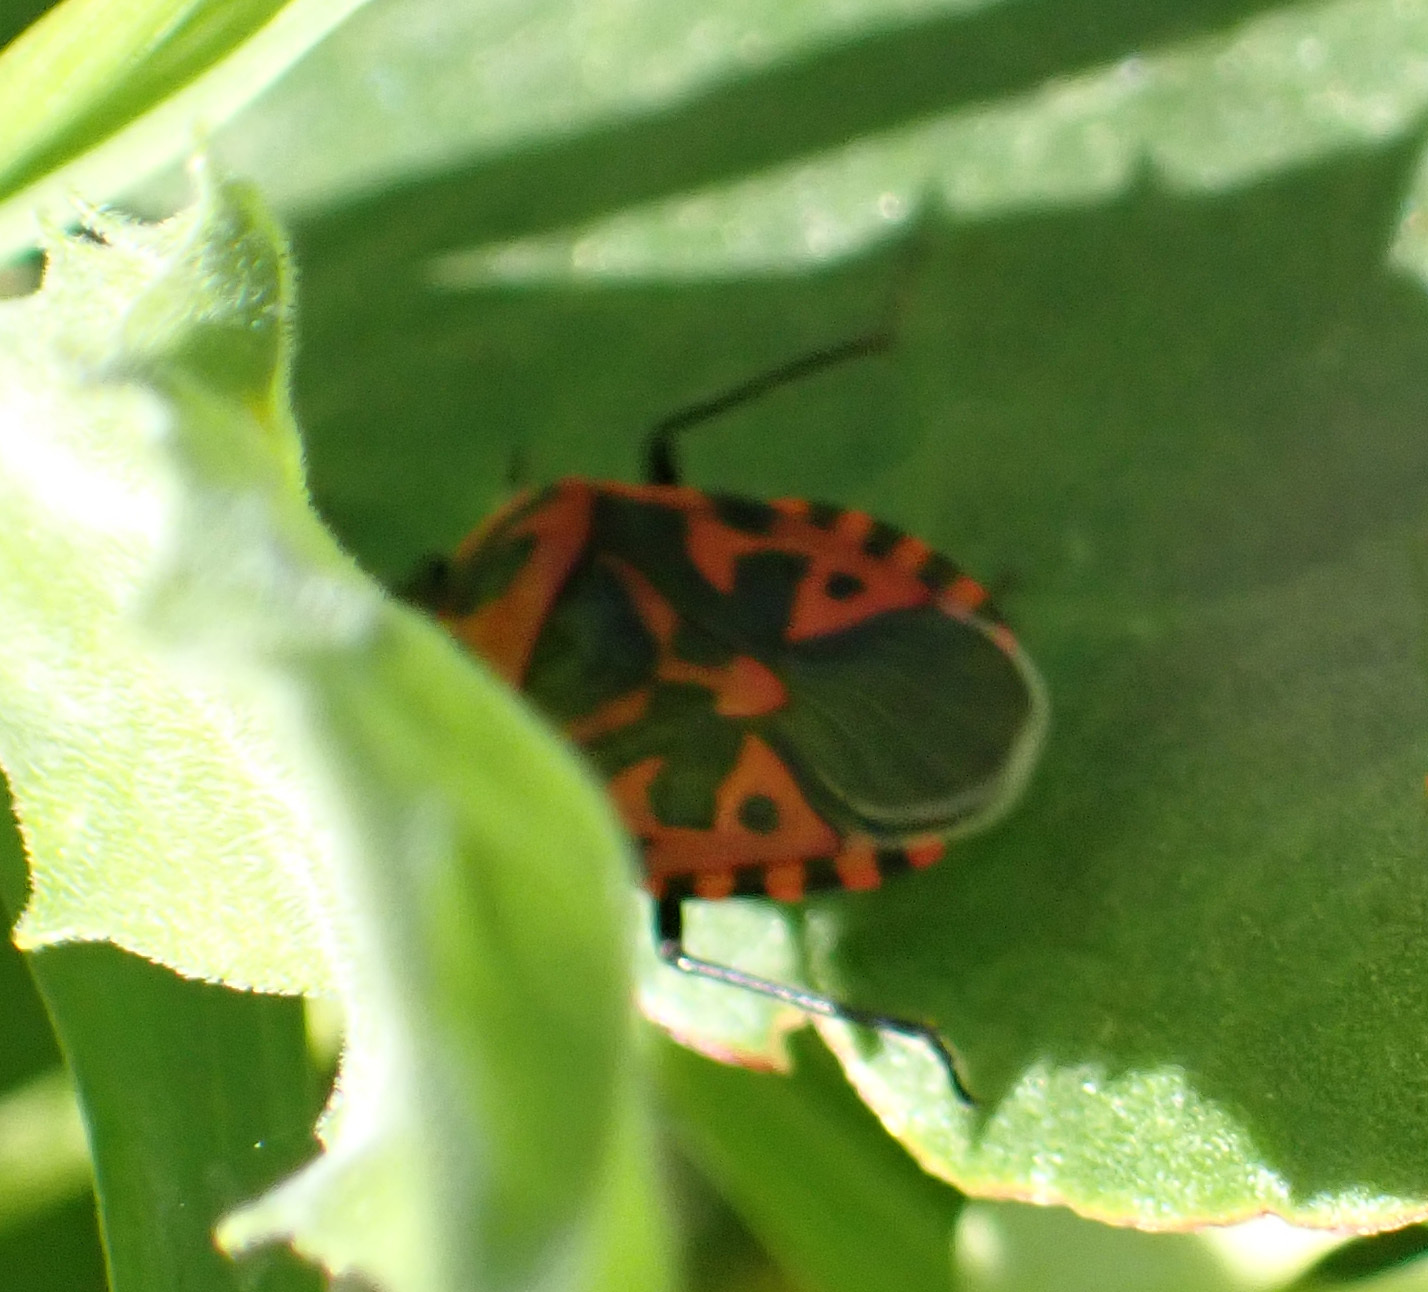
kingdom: Animalia
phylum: Arthropoda
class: Insecta
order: Hemiptera
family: Pentatomidae
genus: Eurydema
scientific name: Eurydema ventralis
